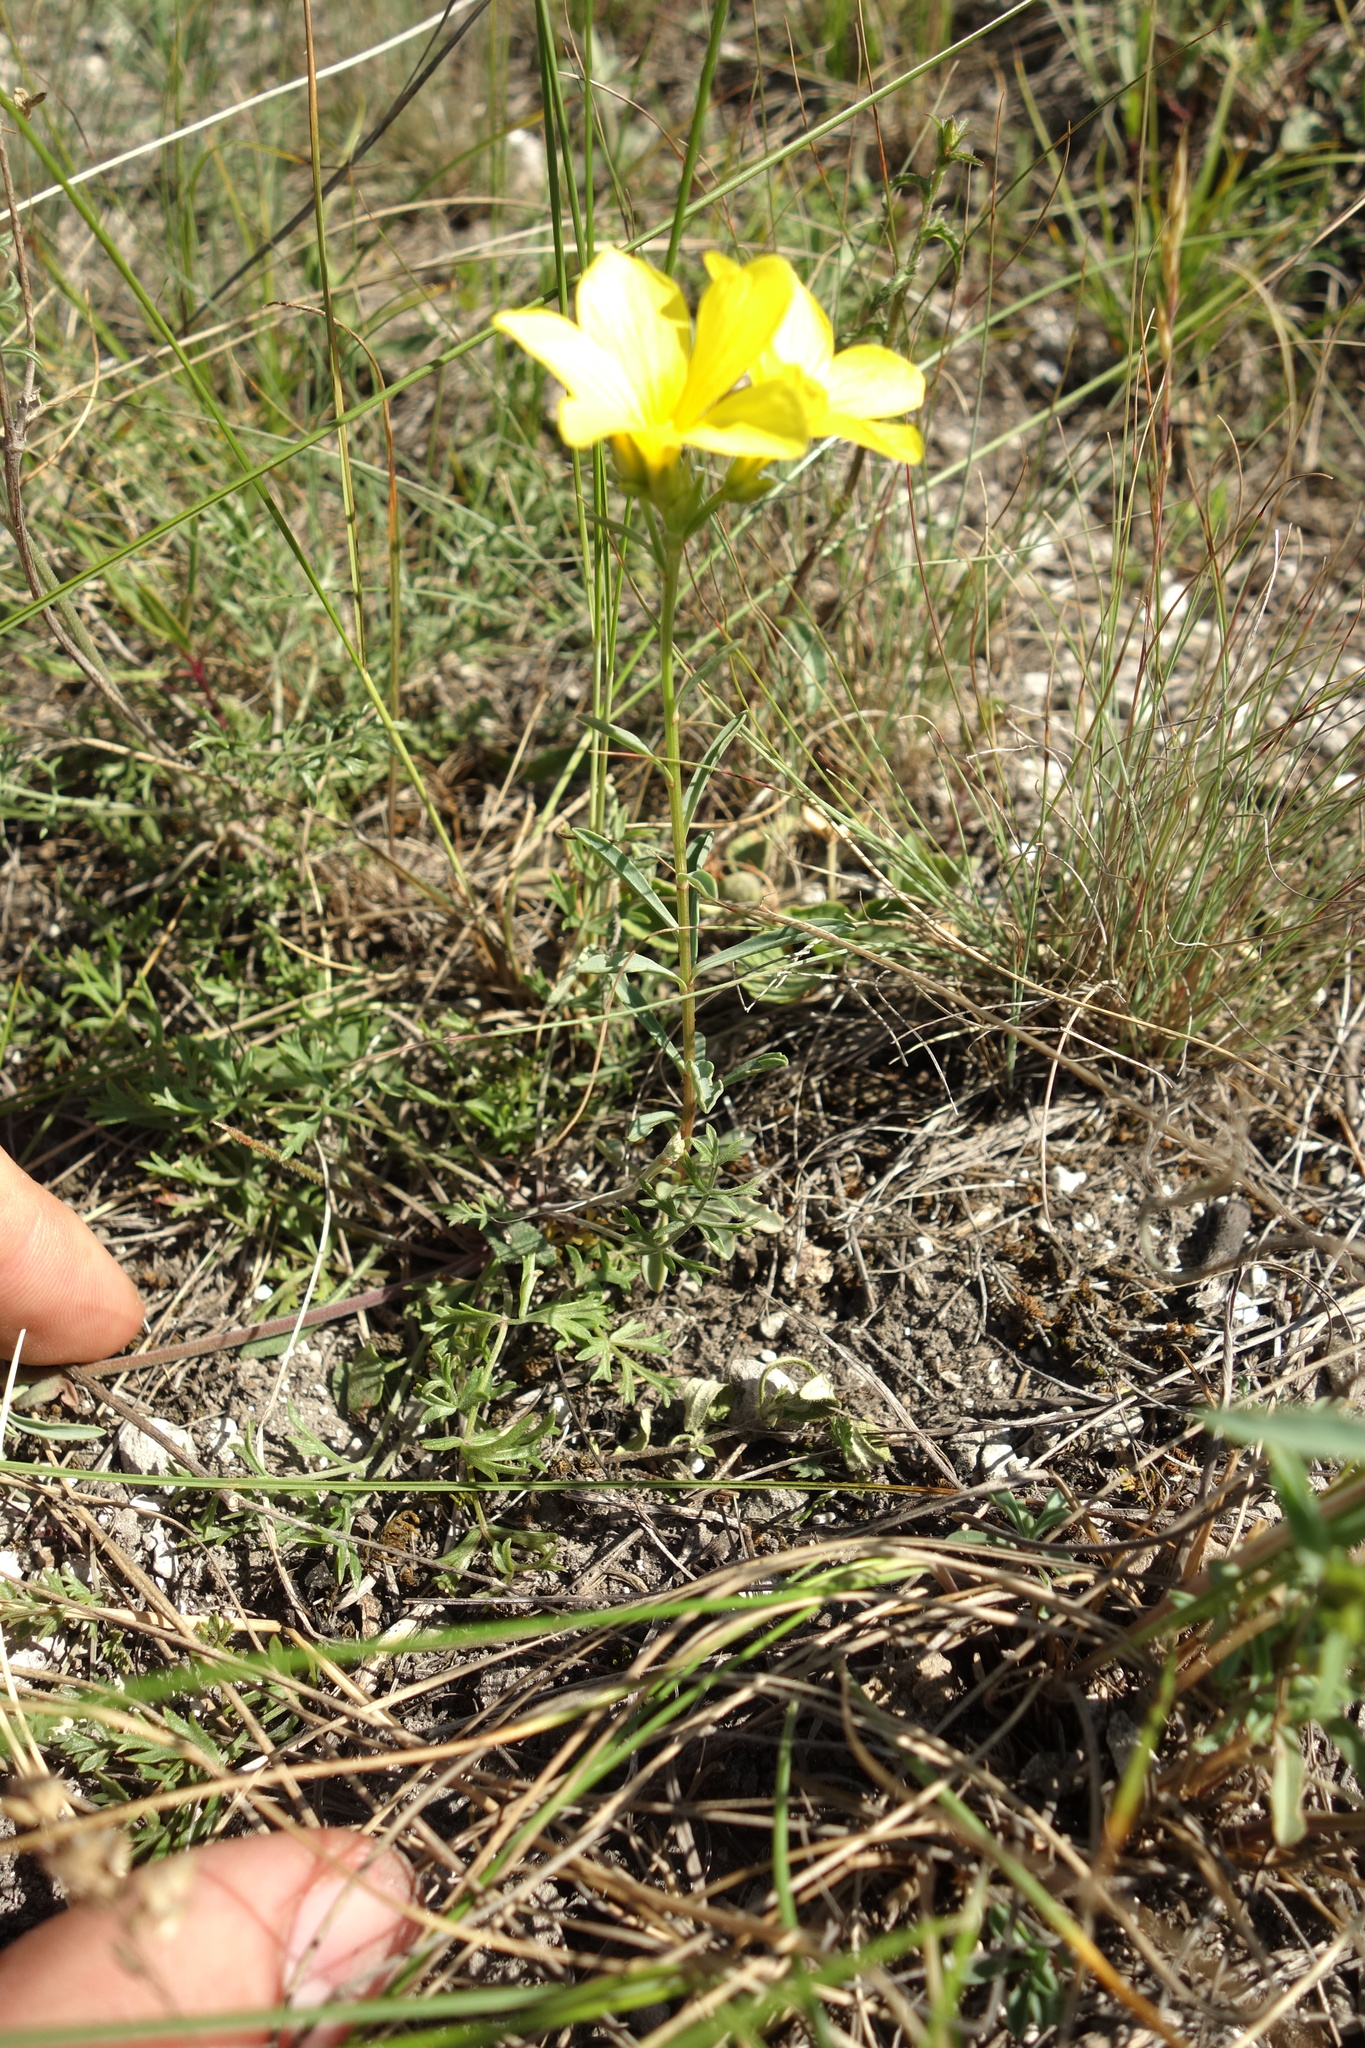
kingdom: Plantae
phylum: Tracheophyta
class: Magnoliopsida
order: Malpighiales
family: Linaceae
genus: Linum
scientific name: Linum ucranicum
